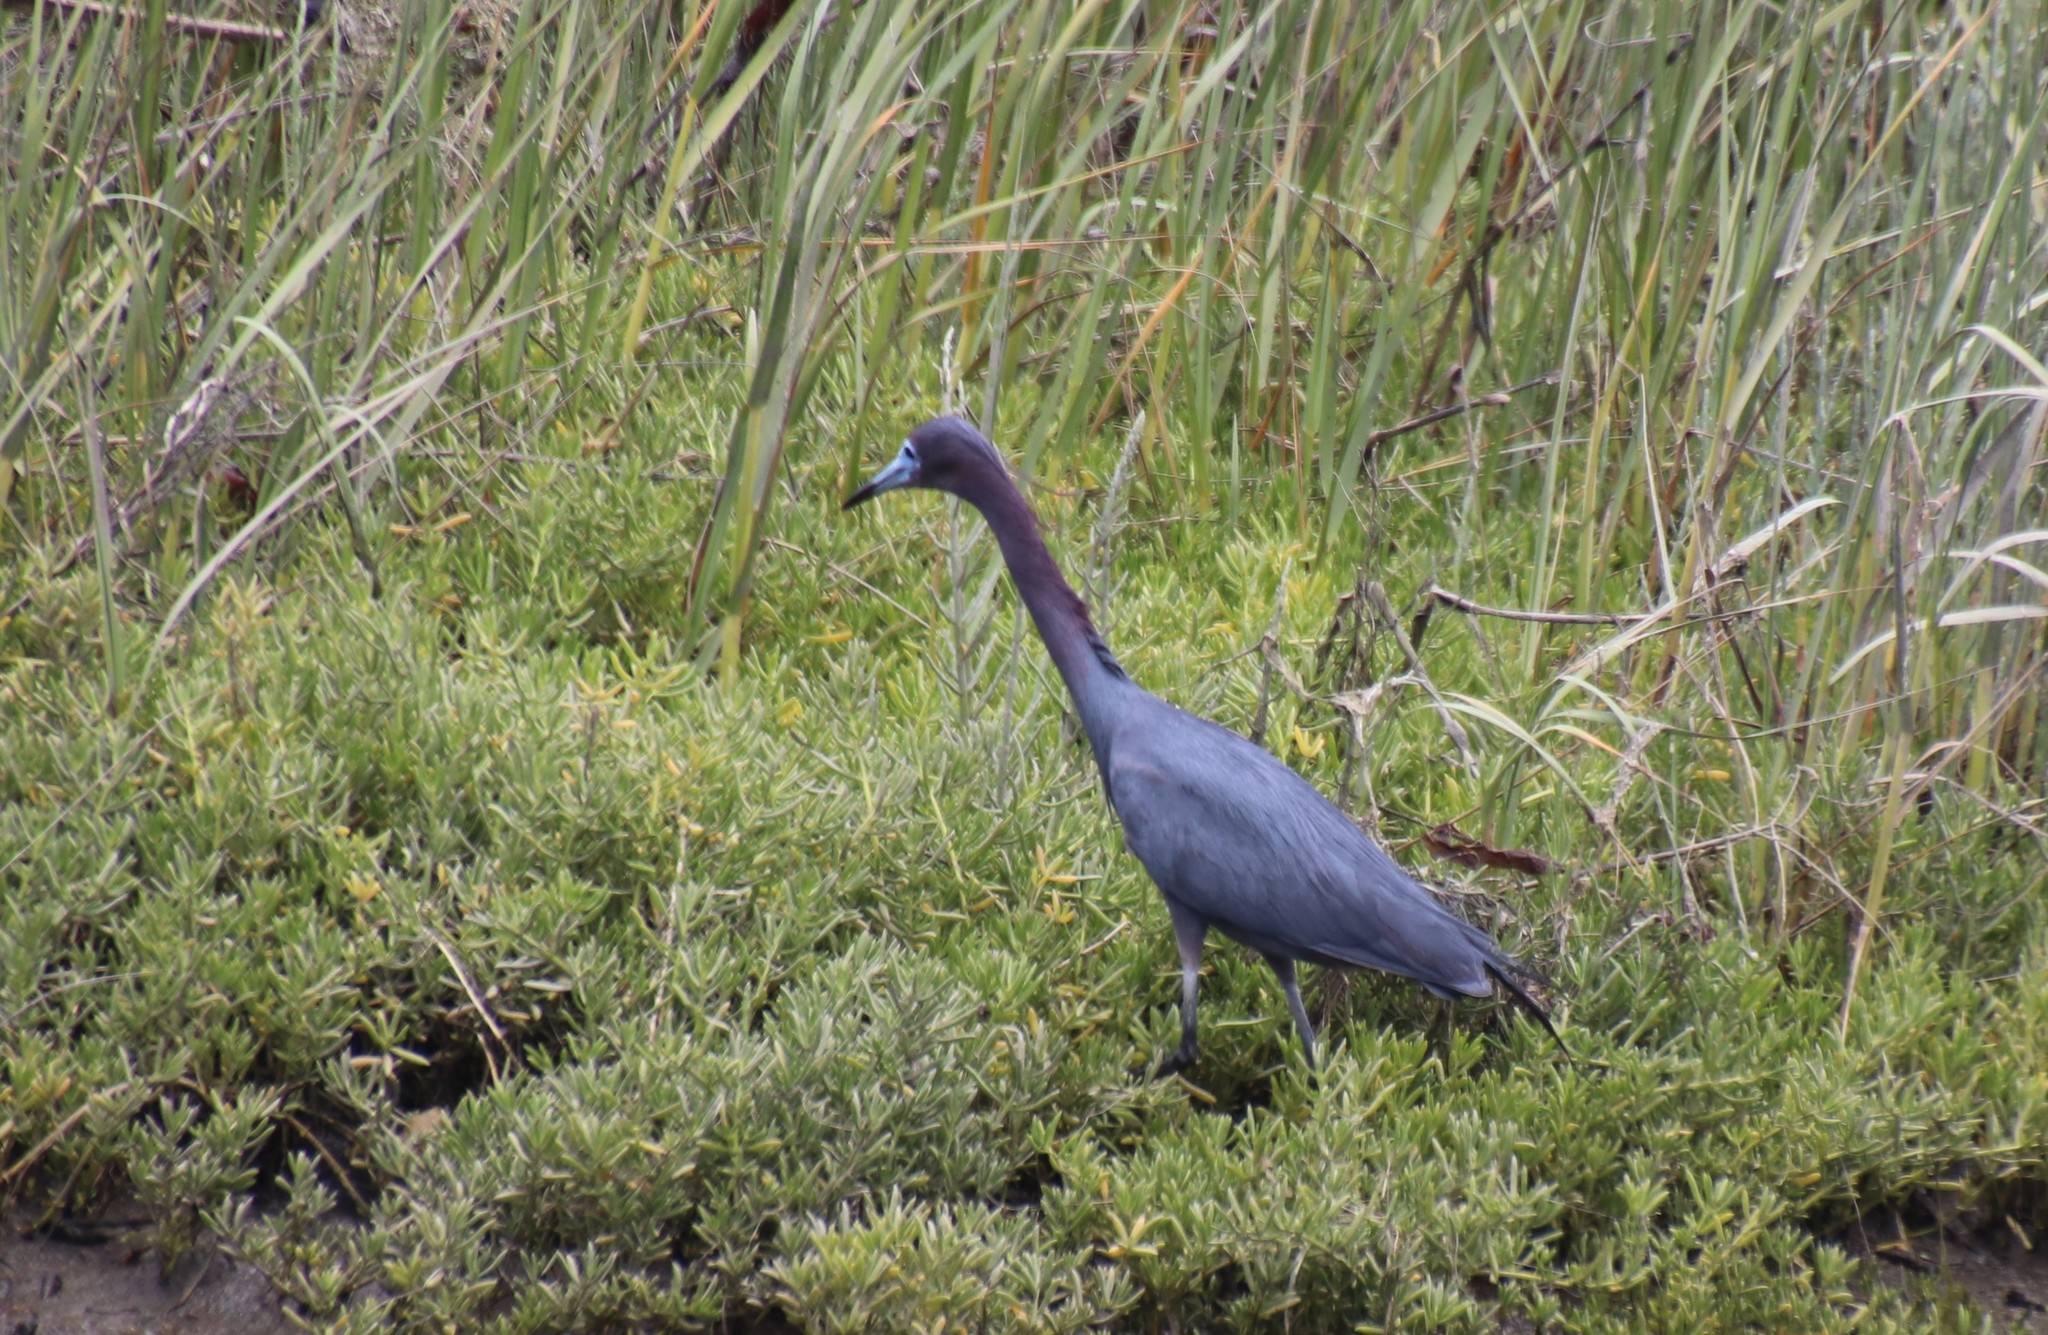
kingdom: Animalia
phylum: Chordata
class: Aves
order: Pelecaniformes
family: Ardeidae
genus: Egretta
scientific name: Egretta caerulea
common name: Little blue heron
